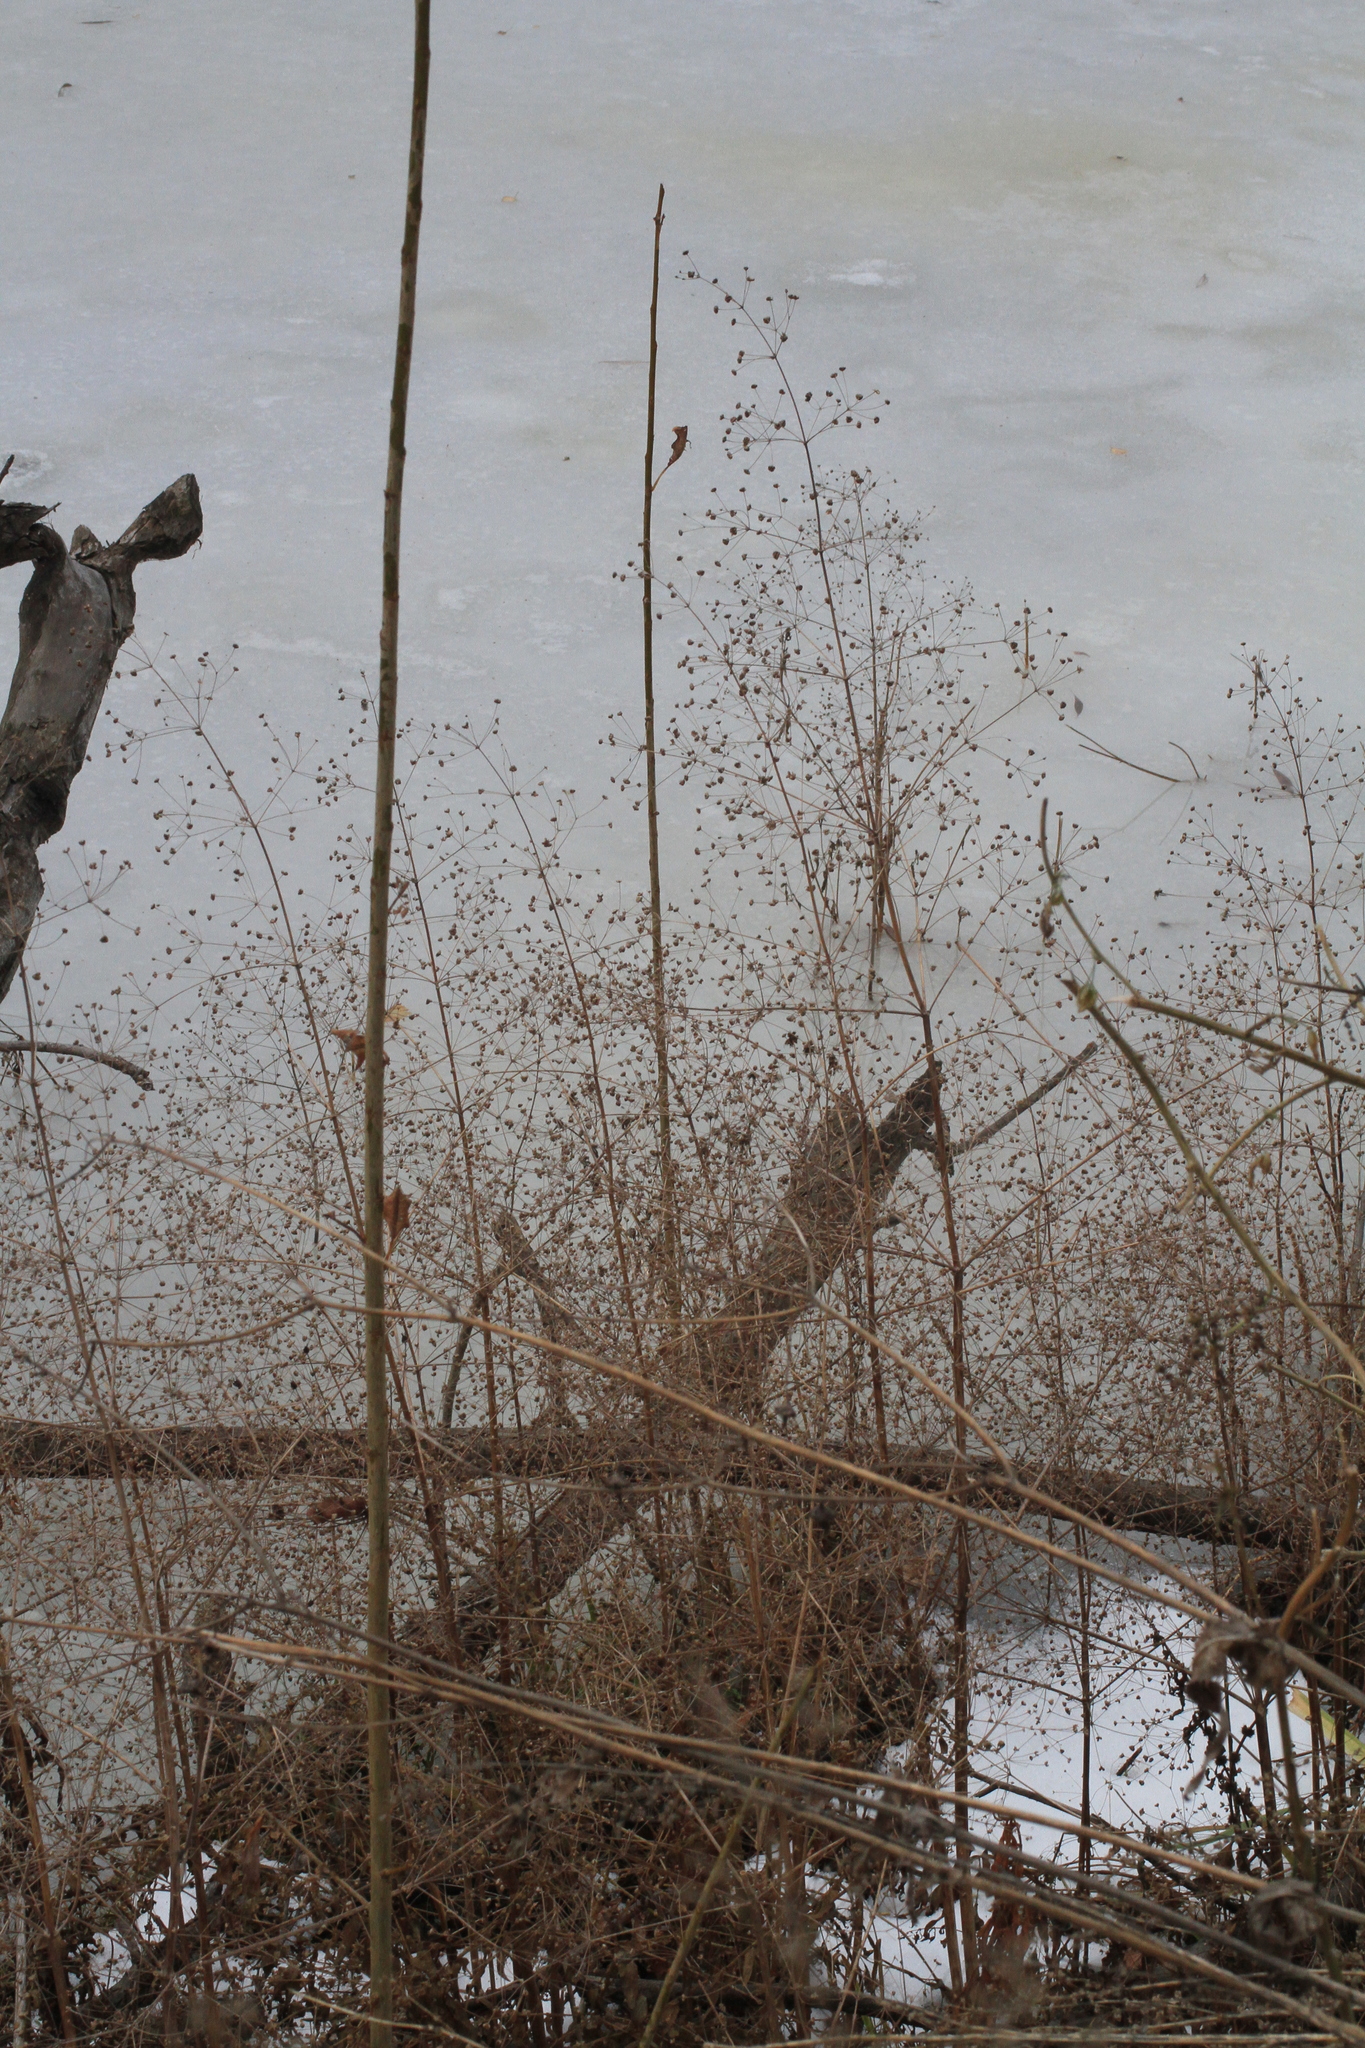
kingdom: Plantae
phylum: Tracheophyta
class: Liliopsida
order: Alismatales
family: Alismataceae
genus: Alisma
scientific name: Alisma plantago-aquatica
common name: Water-plantain
